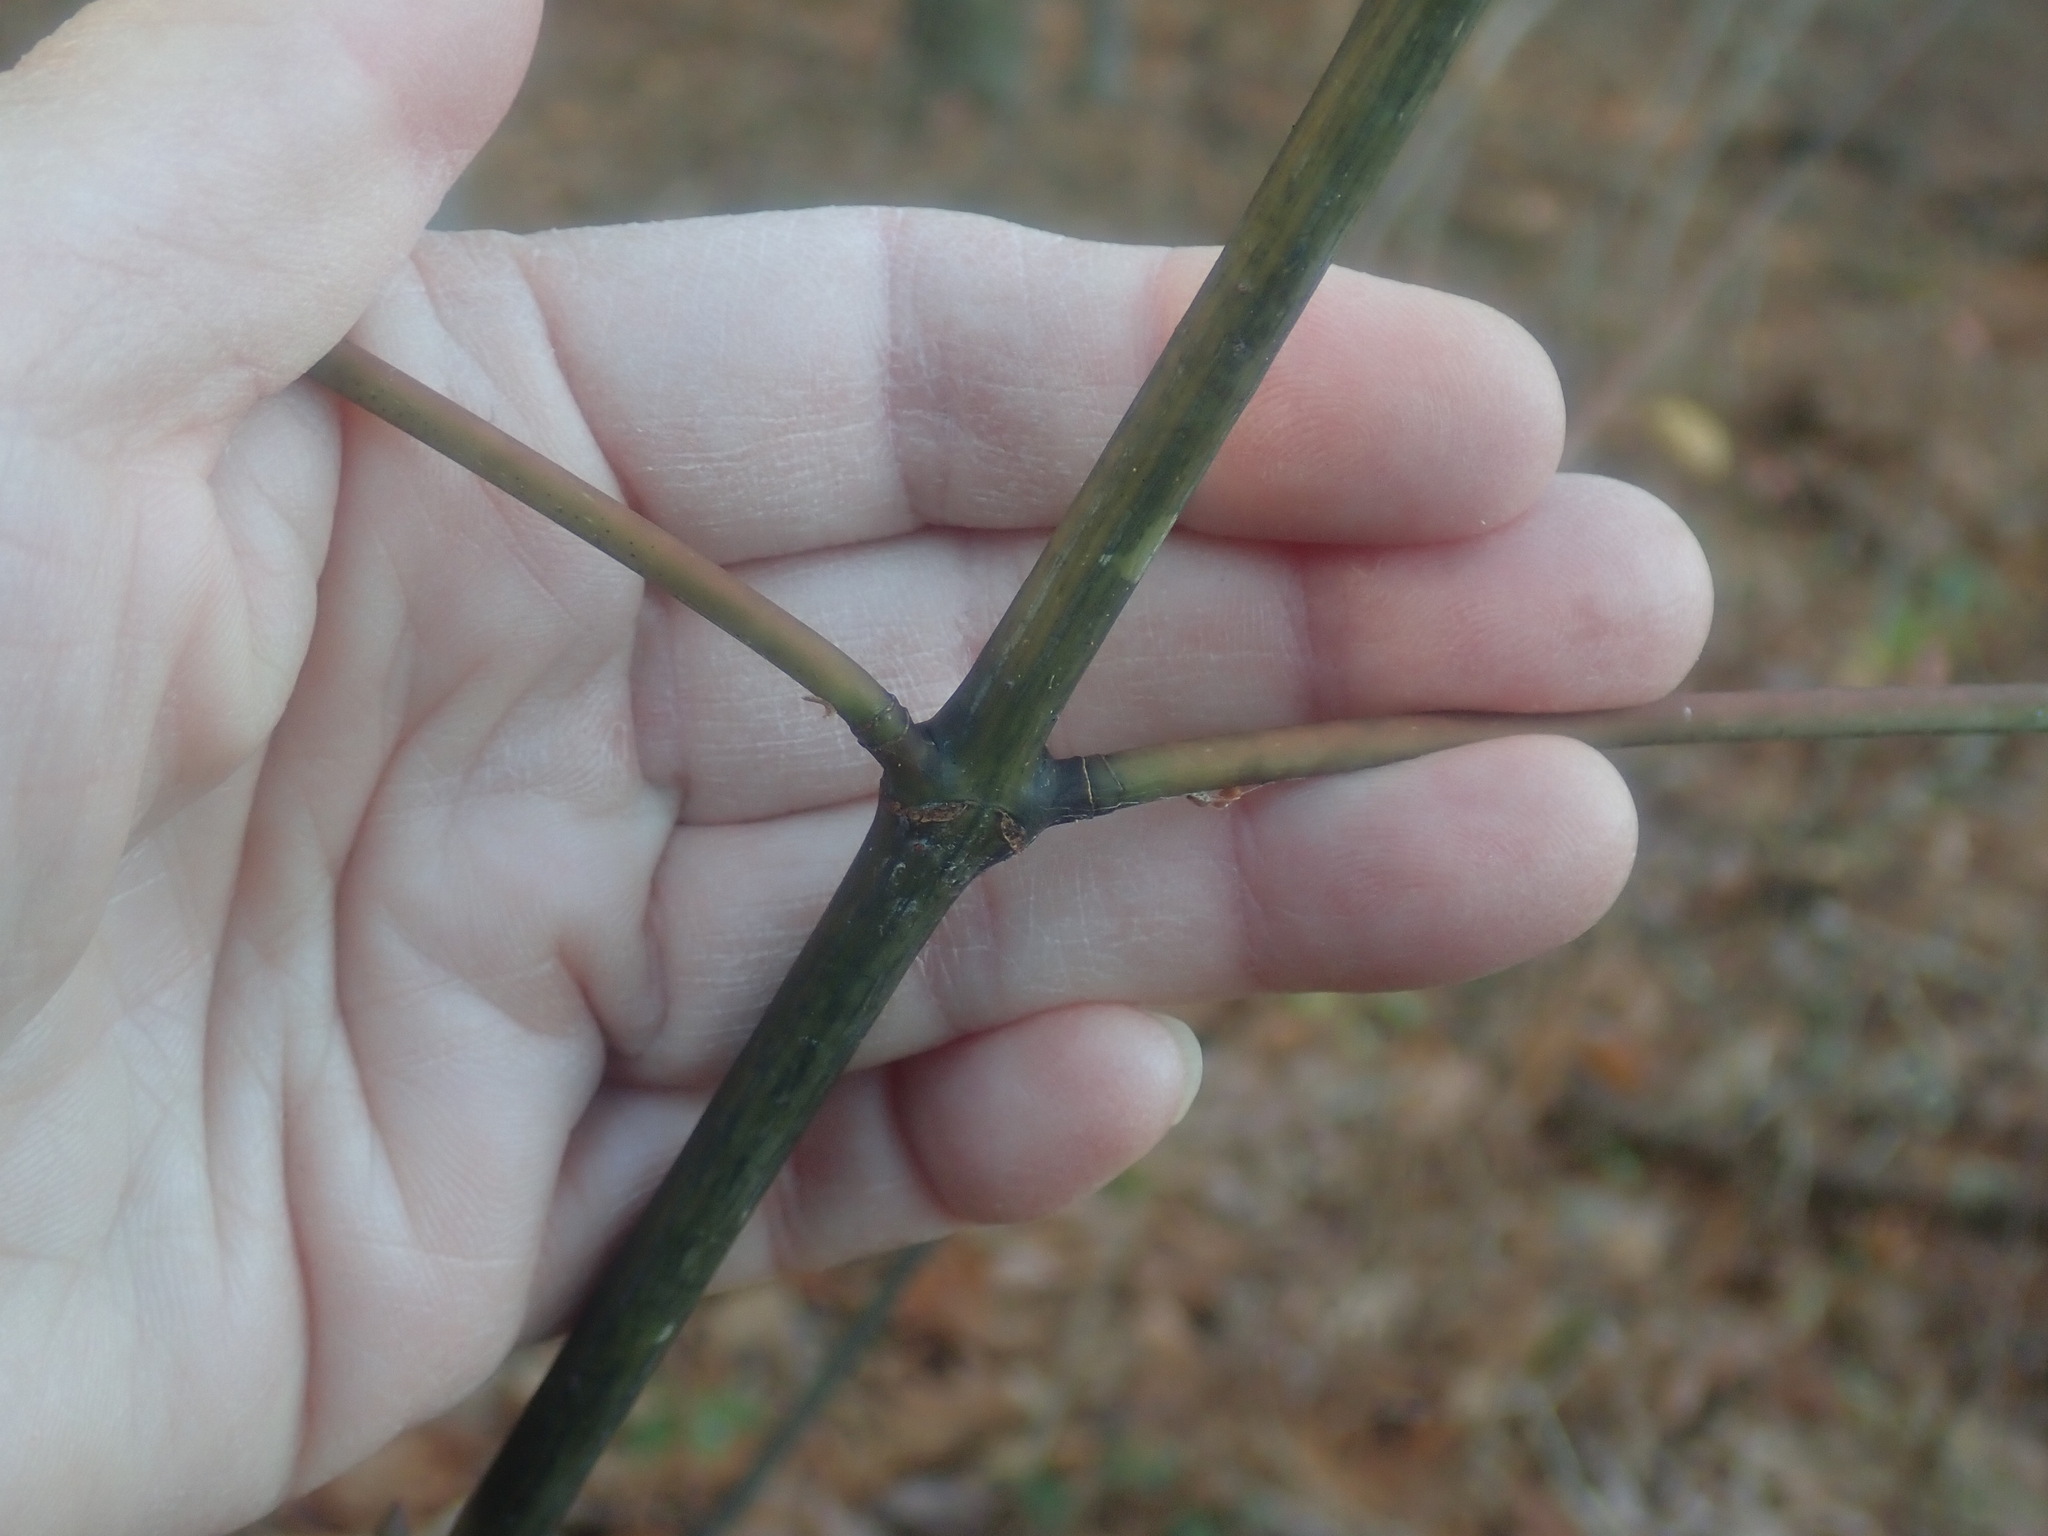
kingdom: Plantae
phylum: Tracheophyta
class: Magnoliopsida
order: Sapindales
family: Sapindaceae
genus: Acer
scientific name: Acer pensylvanicum
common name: Moosewood
